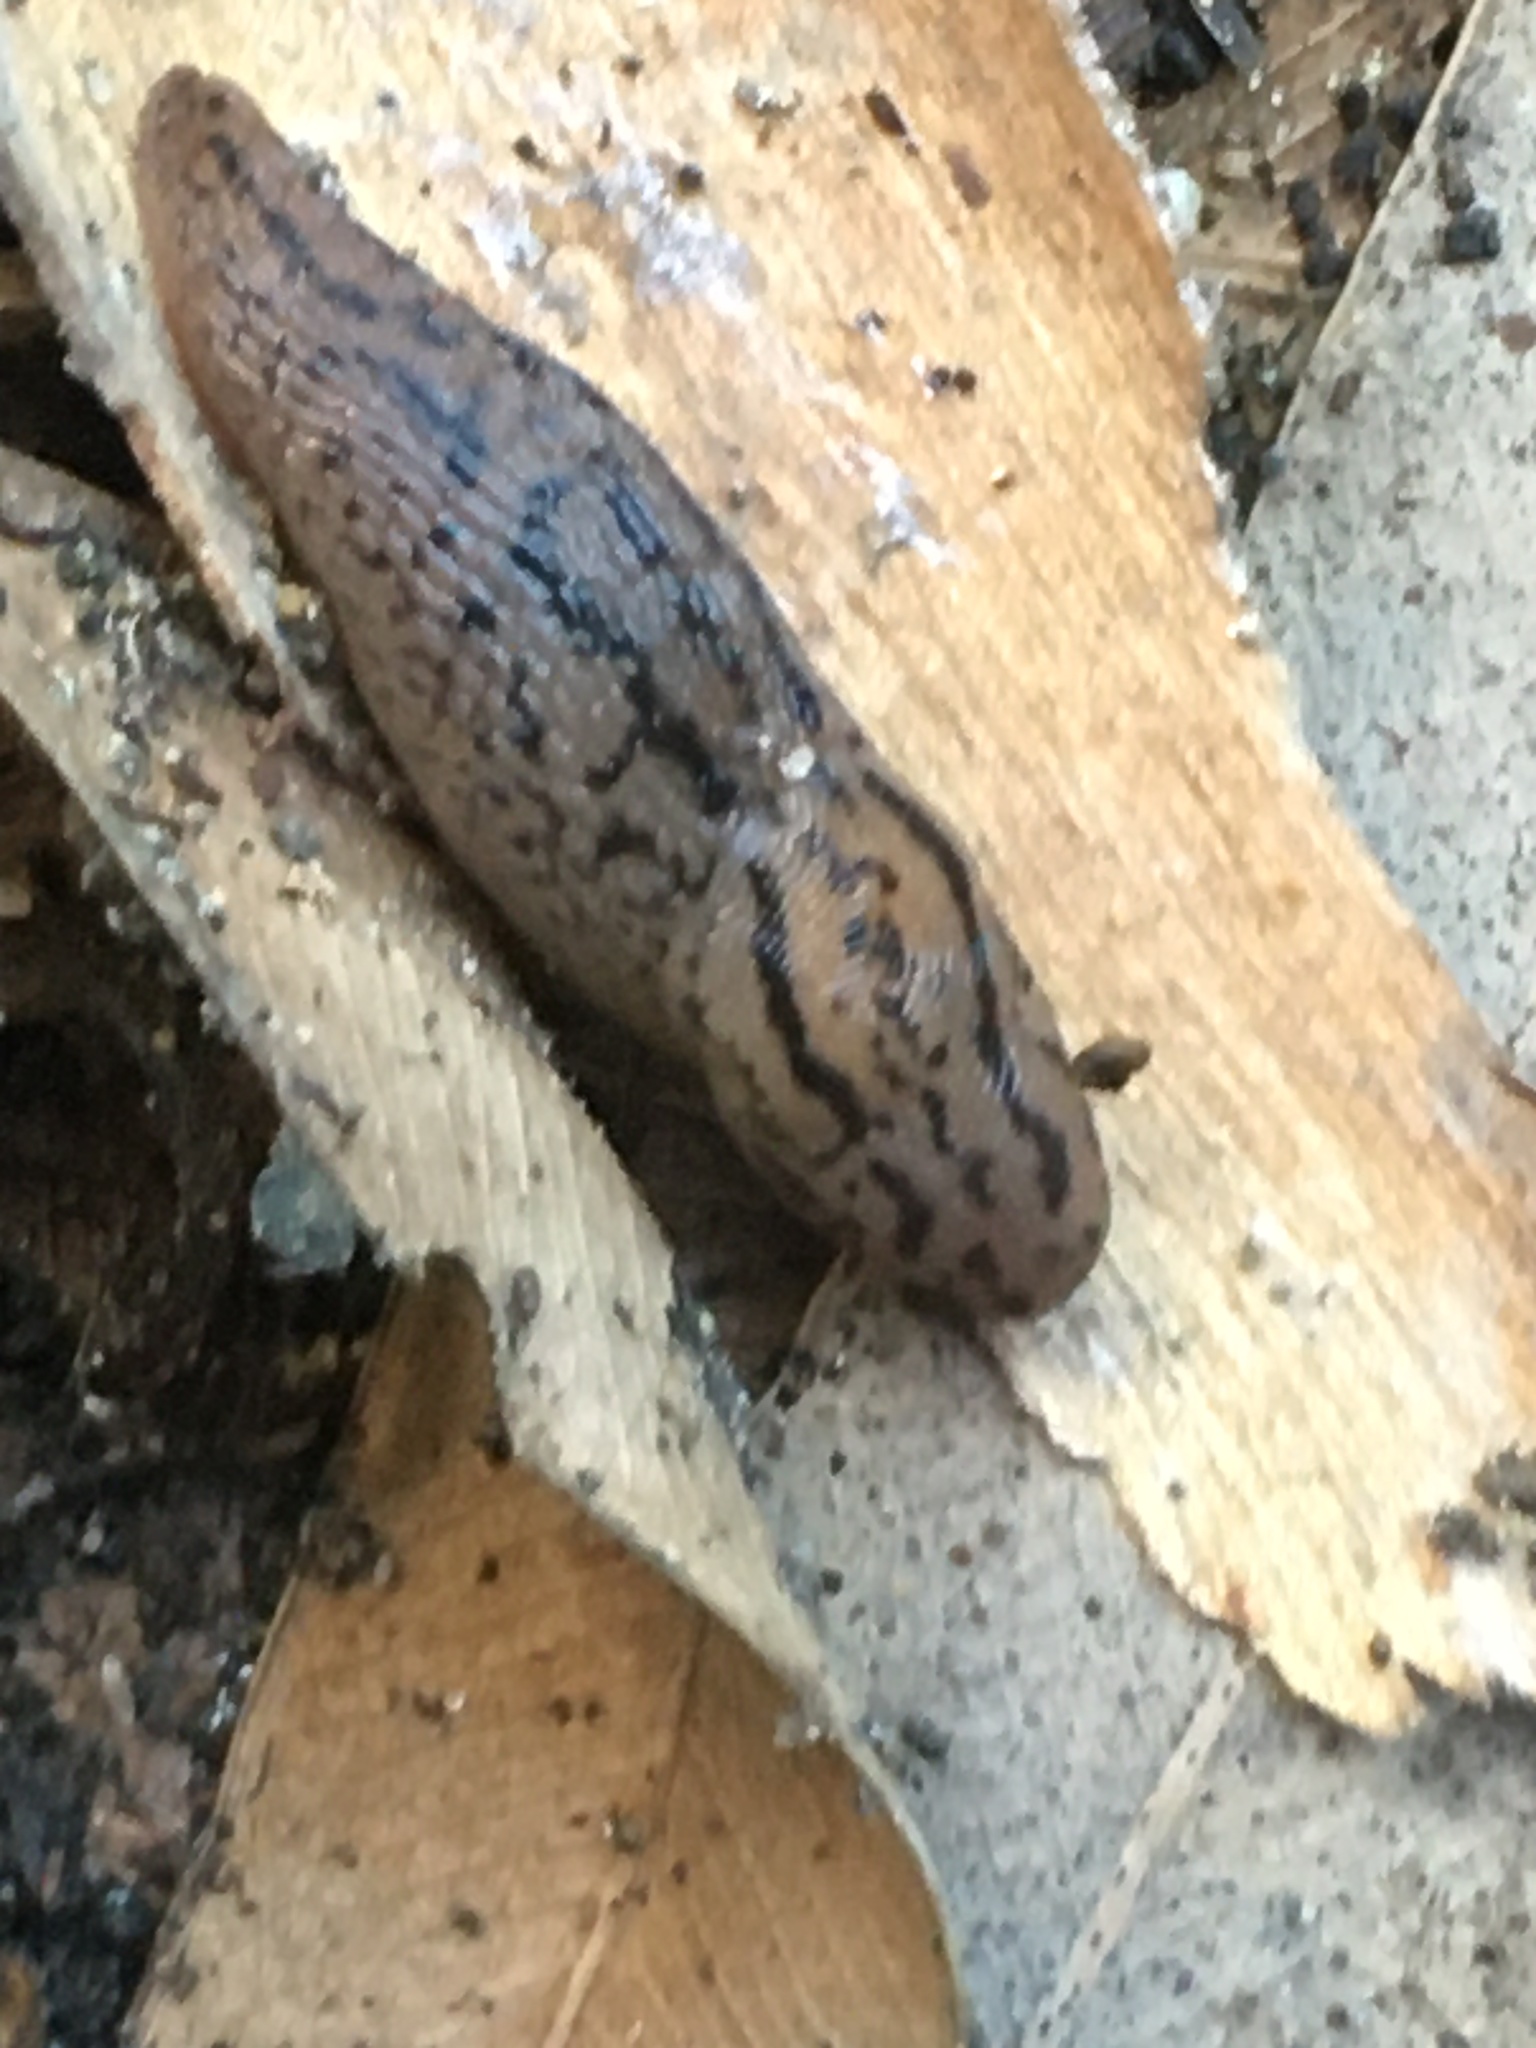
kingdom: Animalia
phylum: Mollusca
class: Gastropoda
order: Stylommatophora
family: Limacidae
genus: Ambigolimax
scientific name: Ambigolimax
